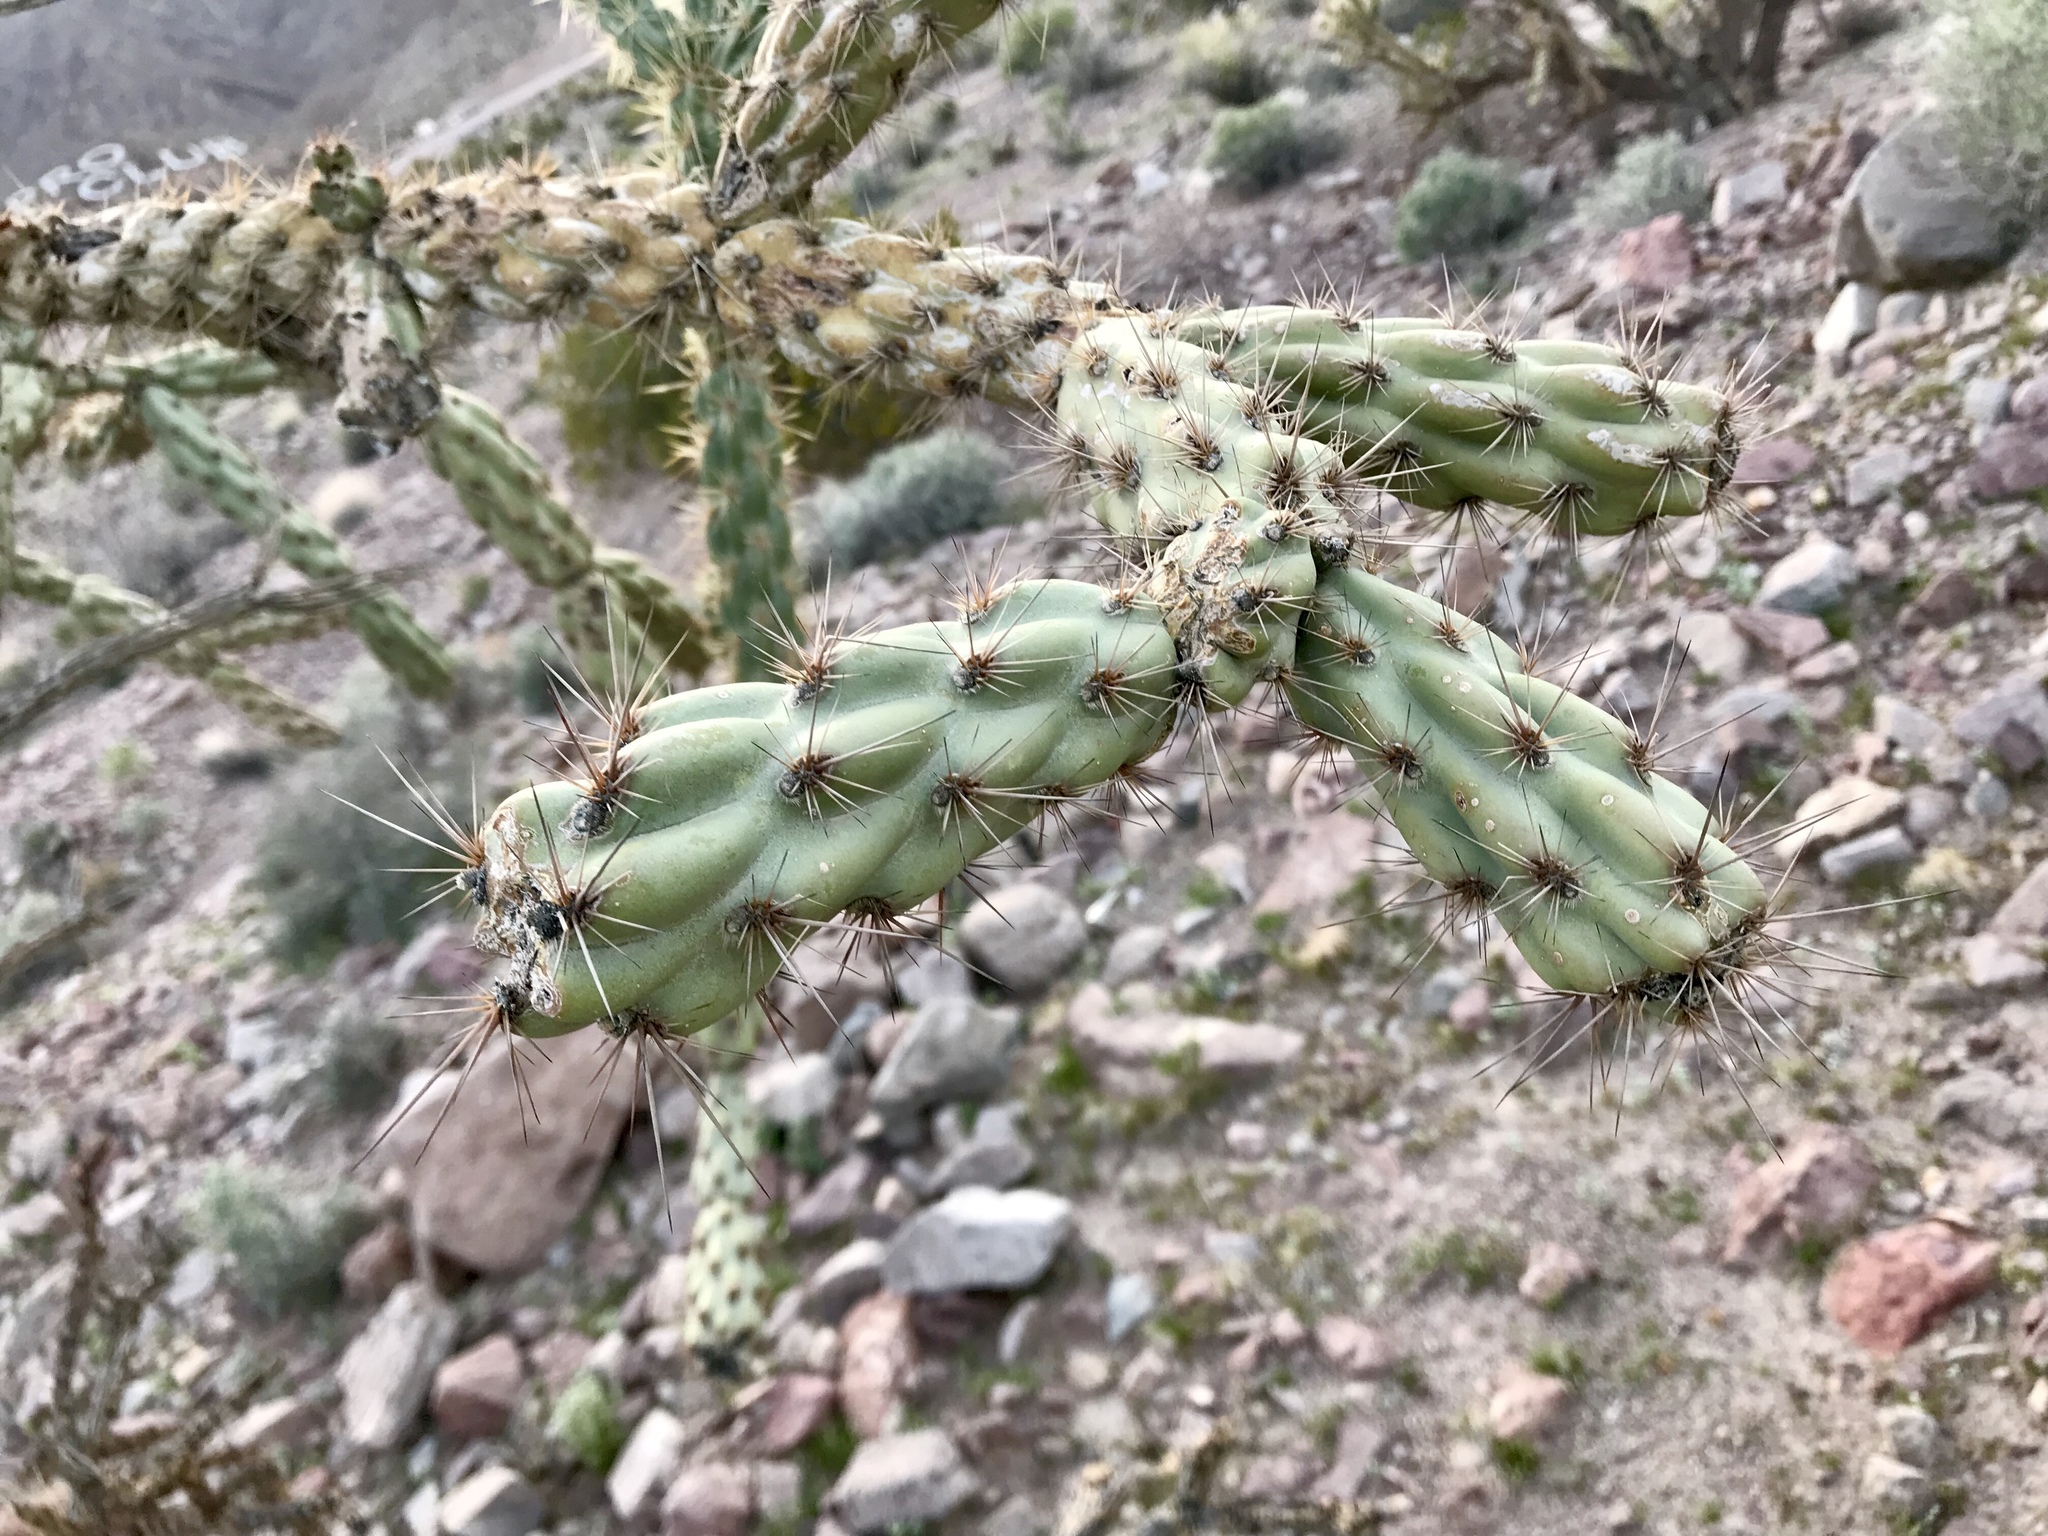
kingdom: Plantae
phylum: Tracheophyta
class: Magnoliopsida
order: Caryophyllales
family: Cactaceae
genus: Cylindropuntia
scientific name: Cylindropuntia acanthocarpa
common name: Buckhorn cholla
